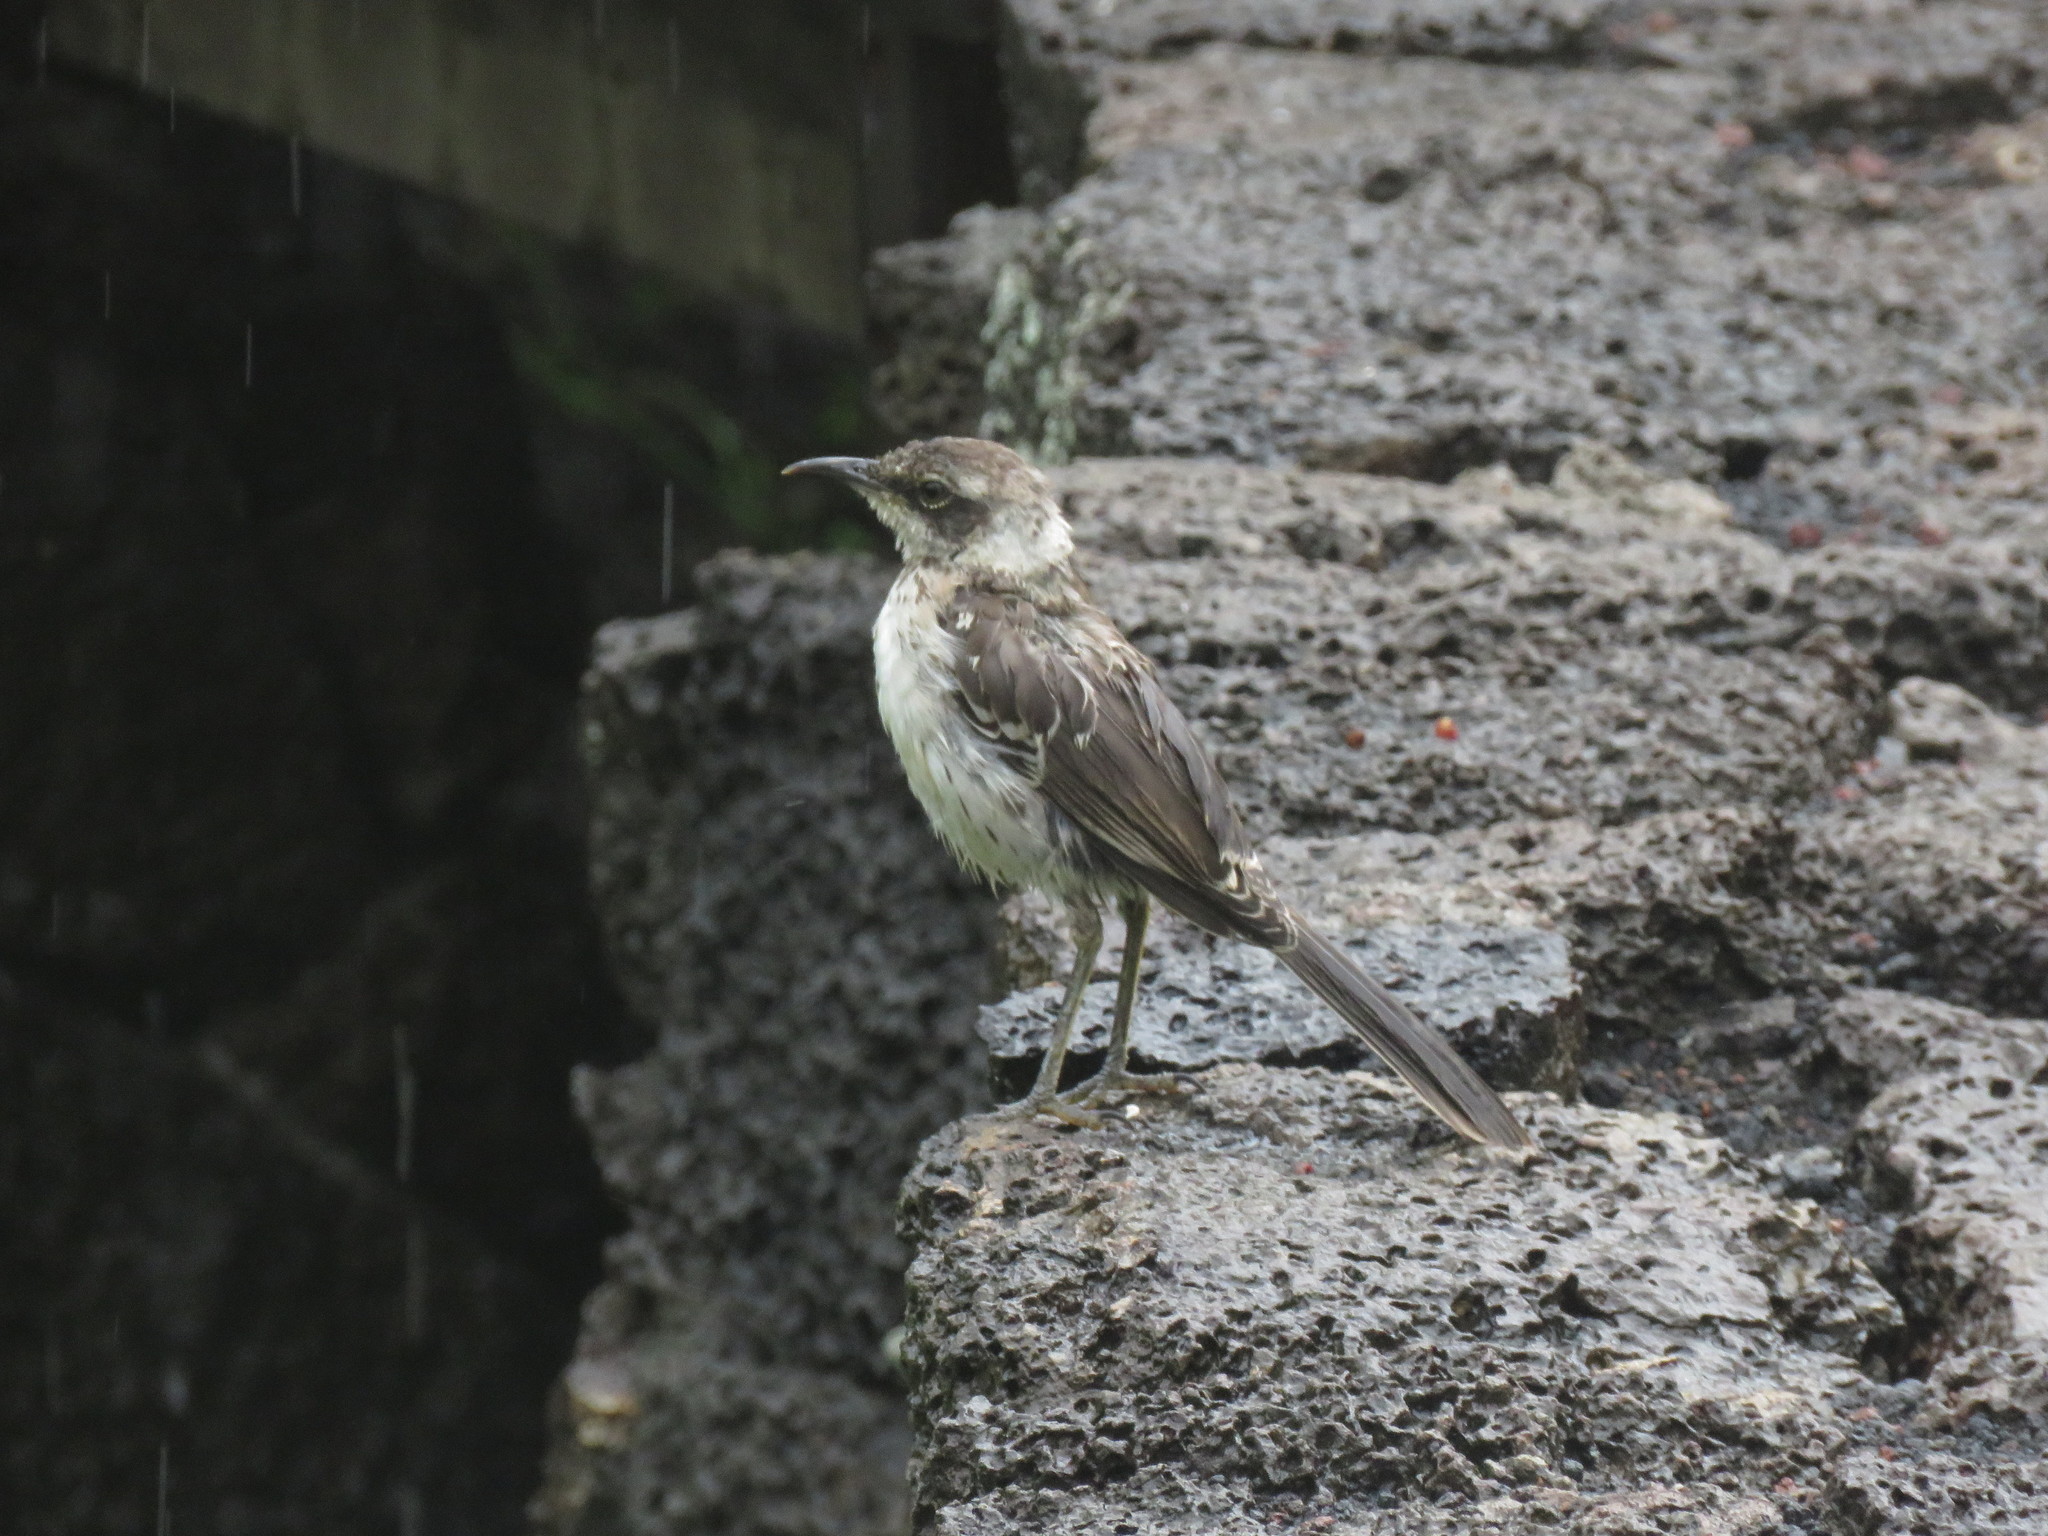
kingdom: Animalia
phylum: Chordata
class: Aves
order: Passeriformes
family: Mimidae
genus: Mimus
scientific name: Mimus parvulus
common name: Galapagos mockingbird
